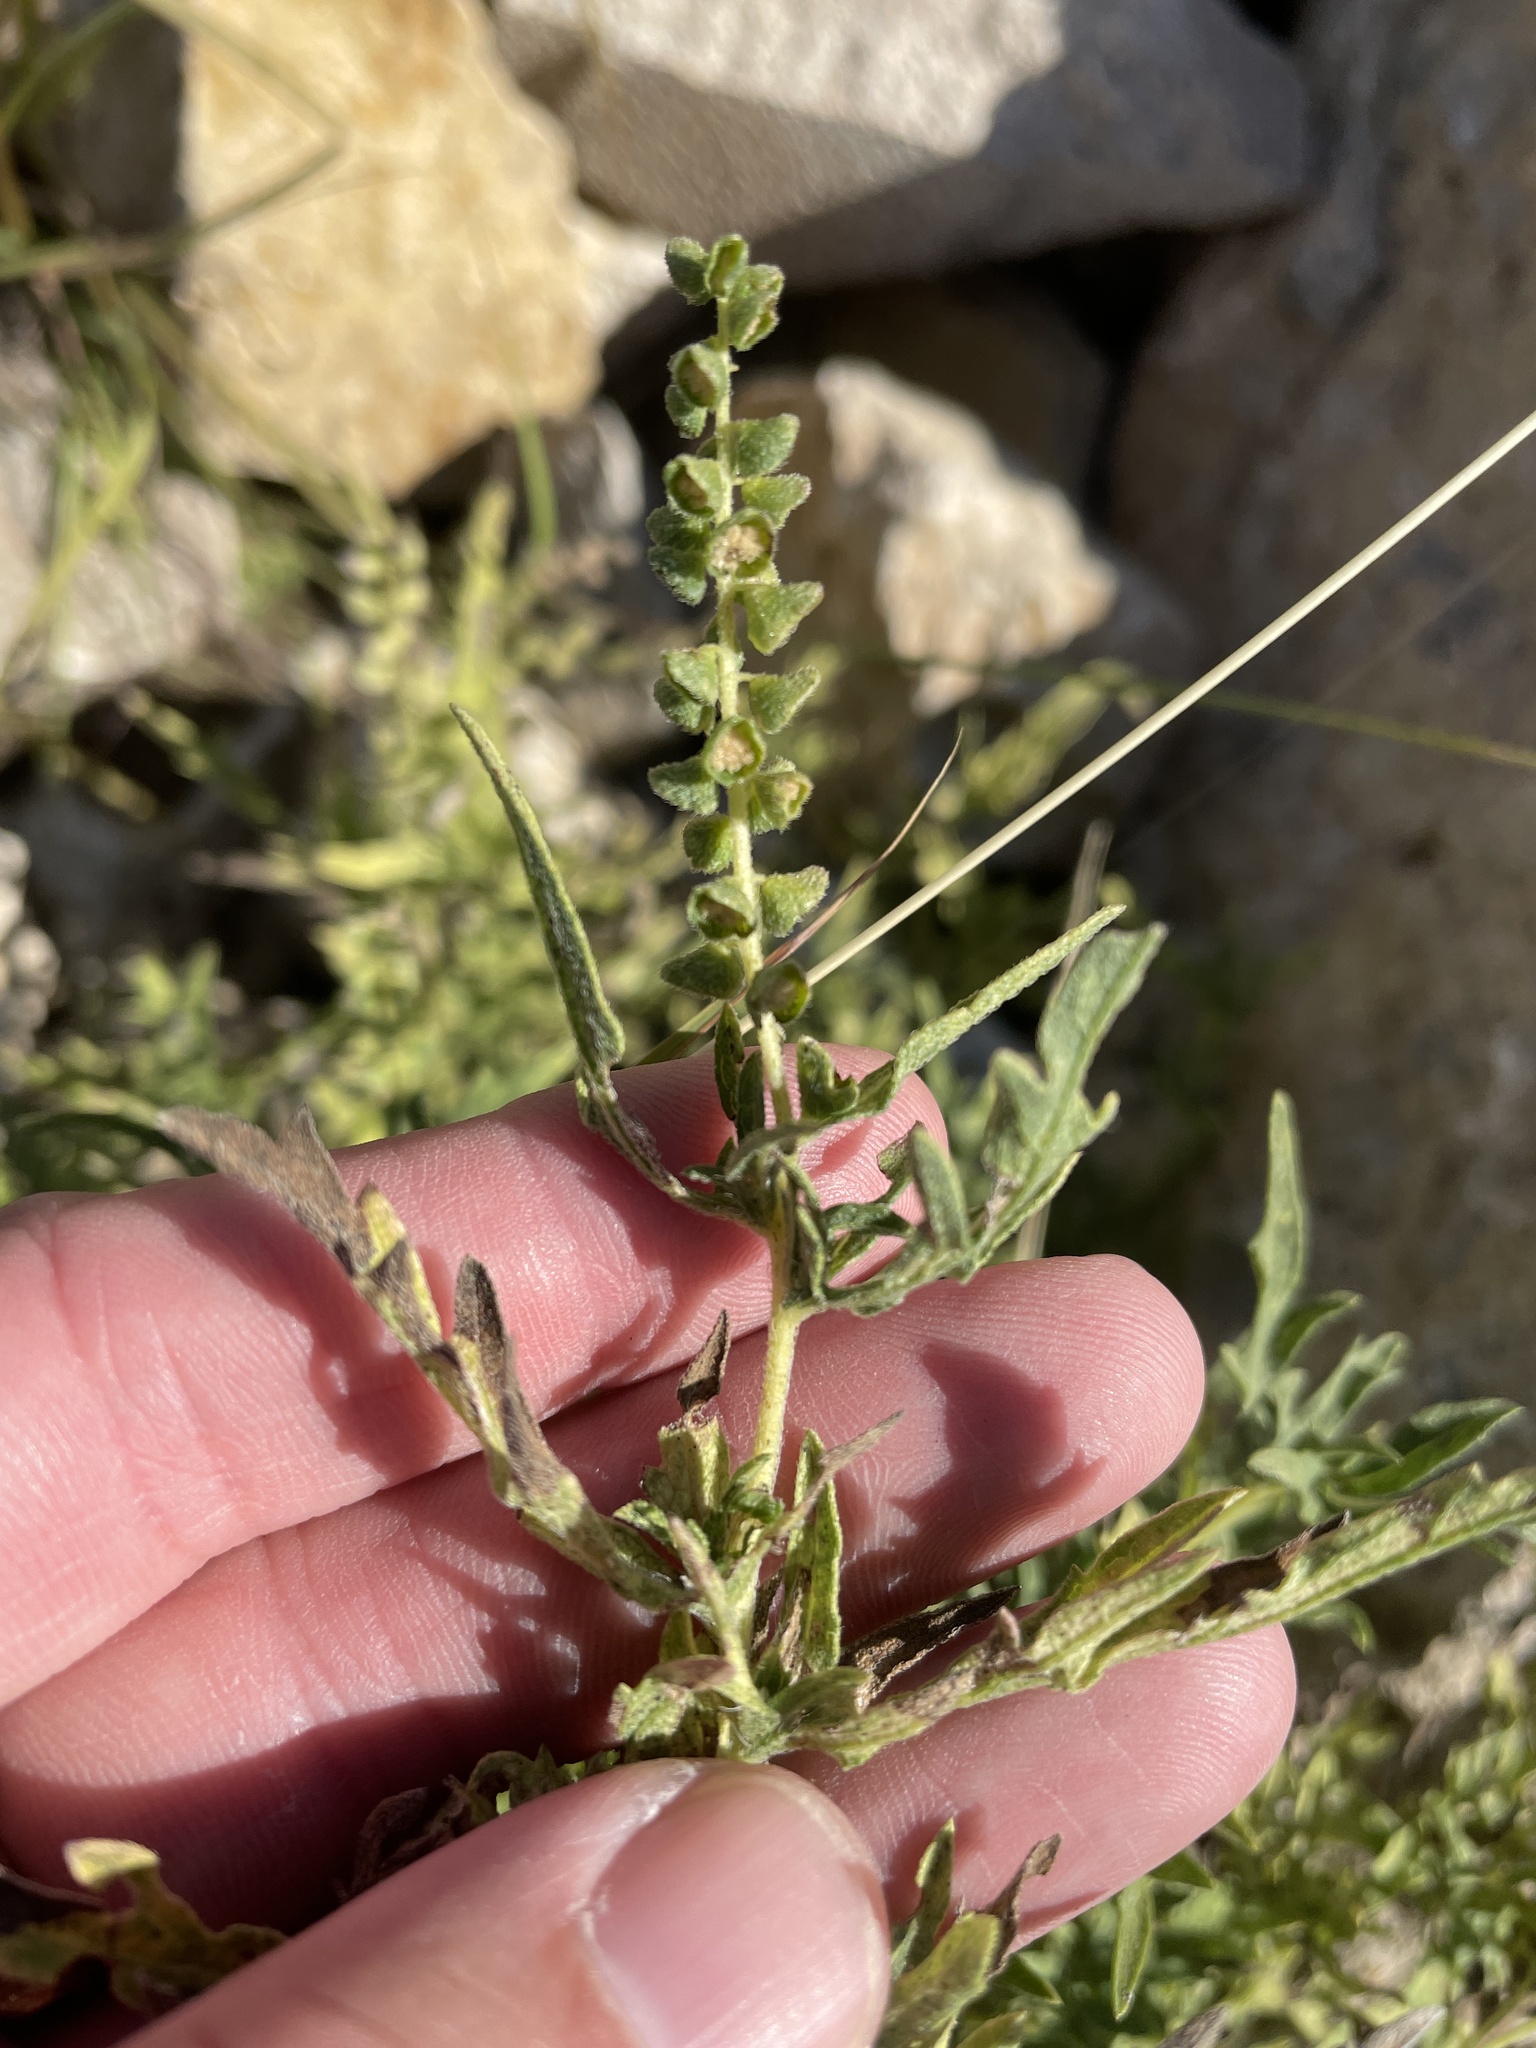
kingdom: Plantae
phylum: Tracheophyta
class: Magnoliopsida
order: Asterales
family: Asteraceae
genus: Ambrosia
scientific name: Ambrosia psilostachya
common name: Perennial ragweed
